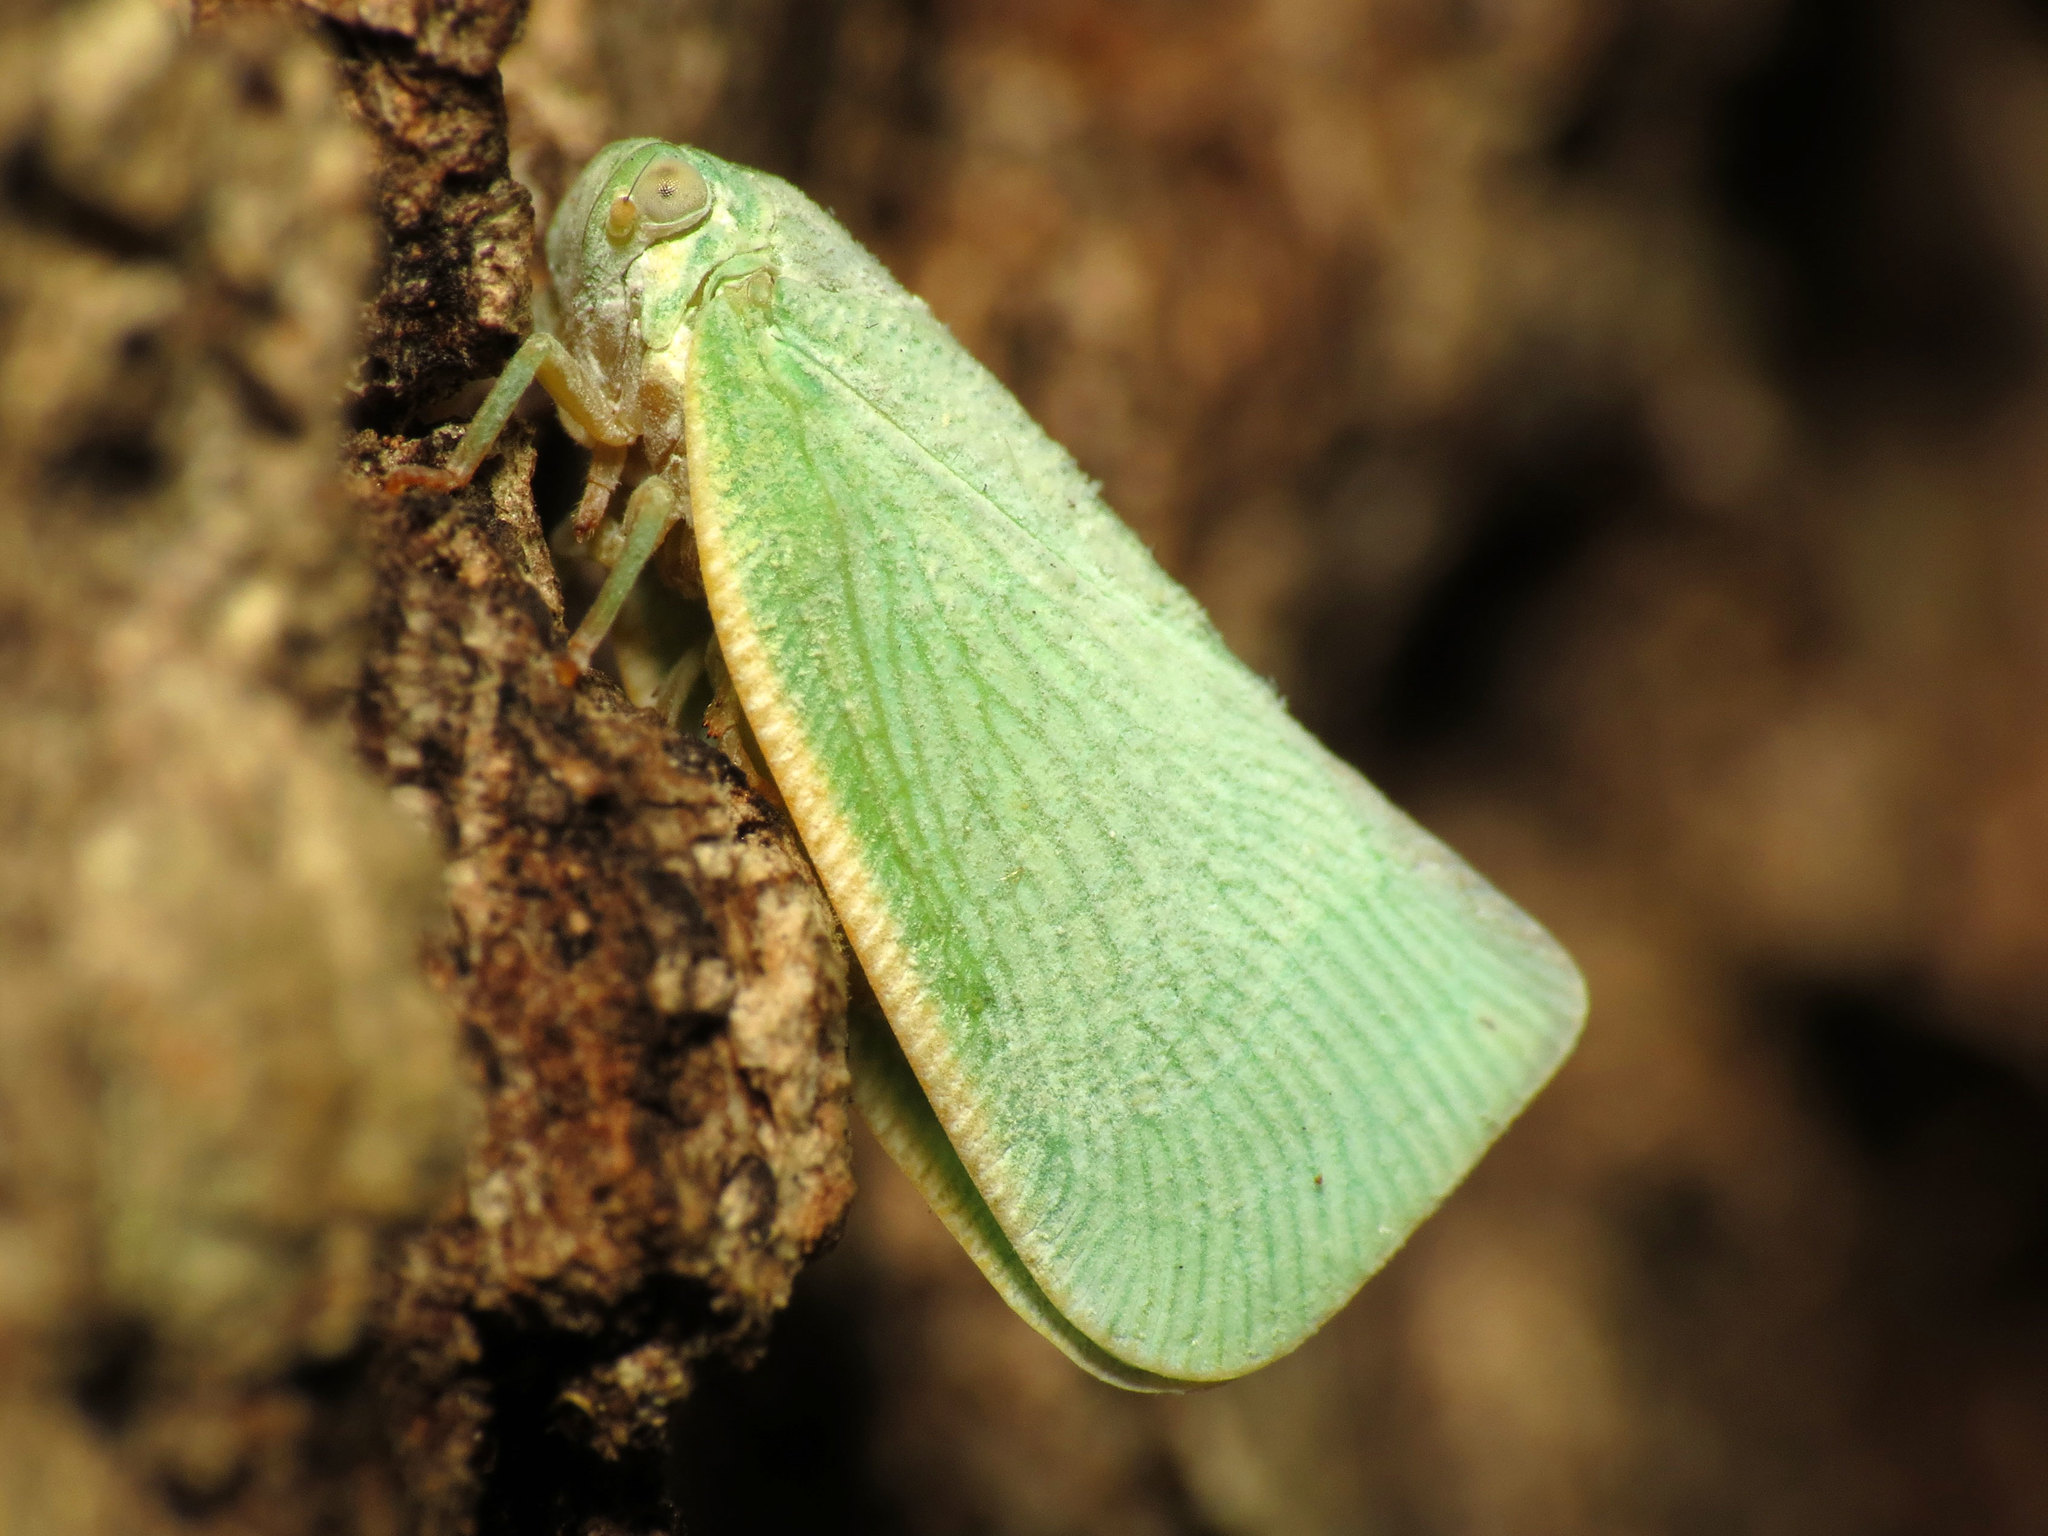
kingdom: Animalia
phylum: Arthropoda
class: Insecta
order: Hemiptera
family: Flatidae
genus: Flatormenis
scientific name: Flatormenis proxima
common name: Northern flatid planthopper
